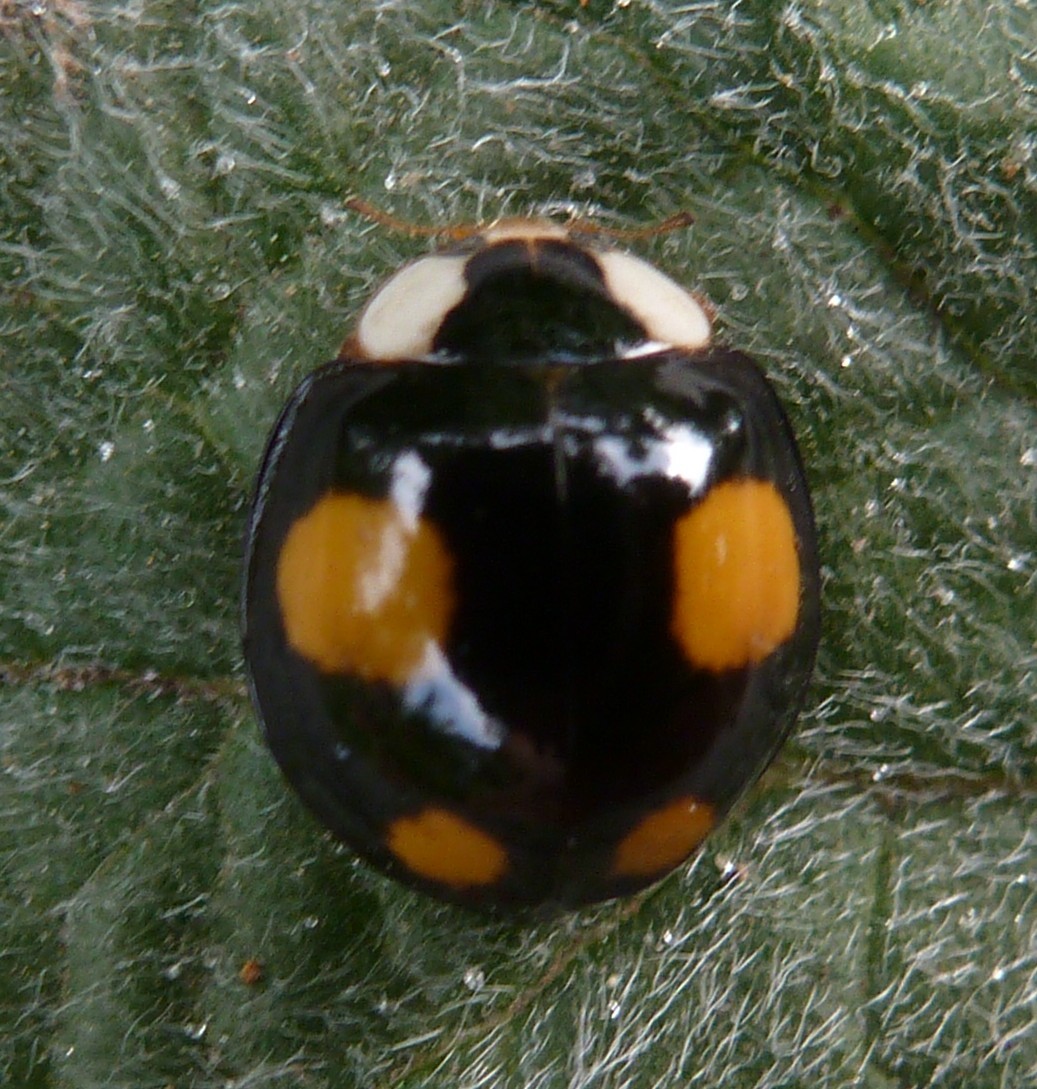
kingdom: Animalia
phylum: Arthropoda
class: Insecta
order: Coleoptera
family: Coccinellidae
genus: Harmonia
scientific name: Harmonia axyridis
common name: Harlequin ladybird
